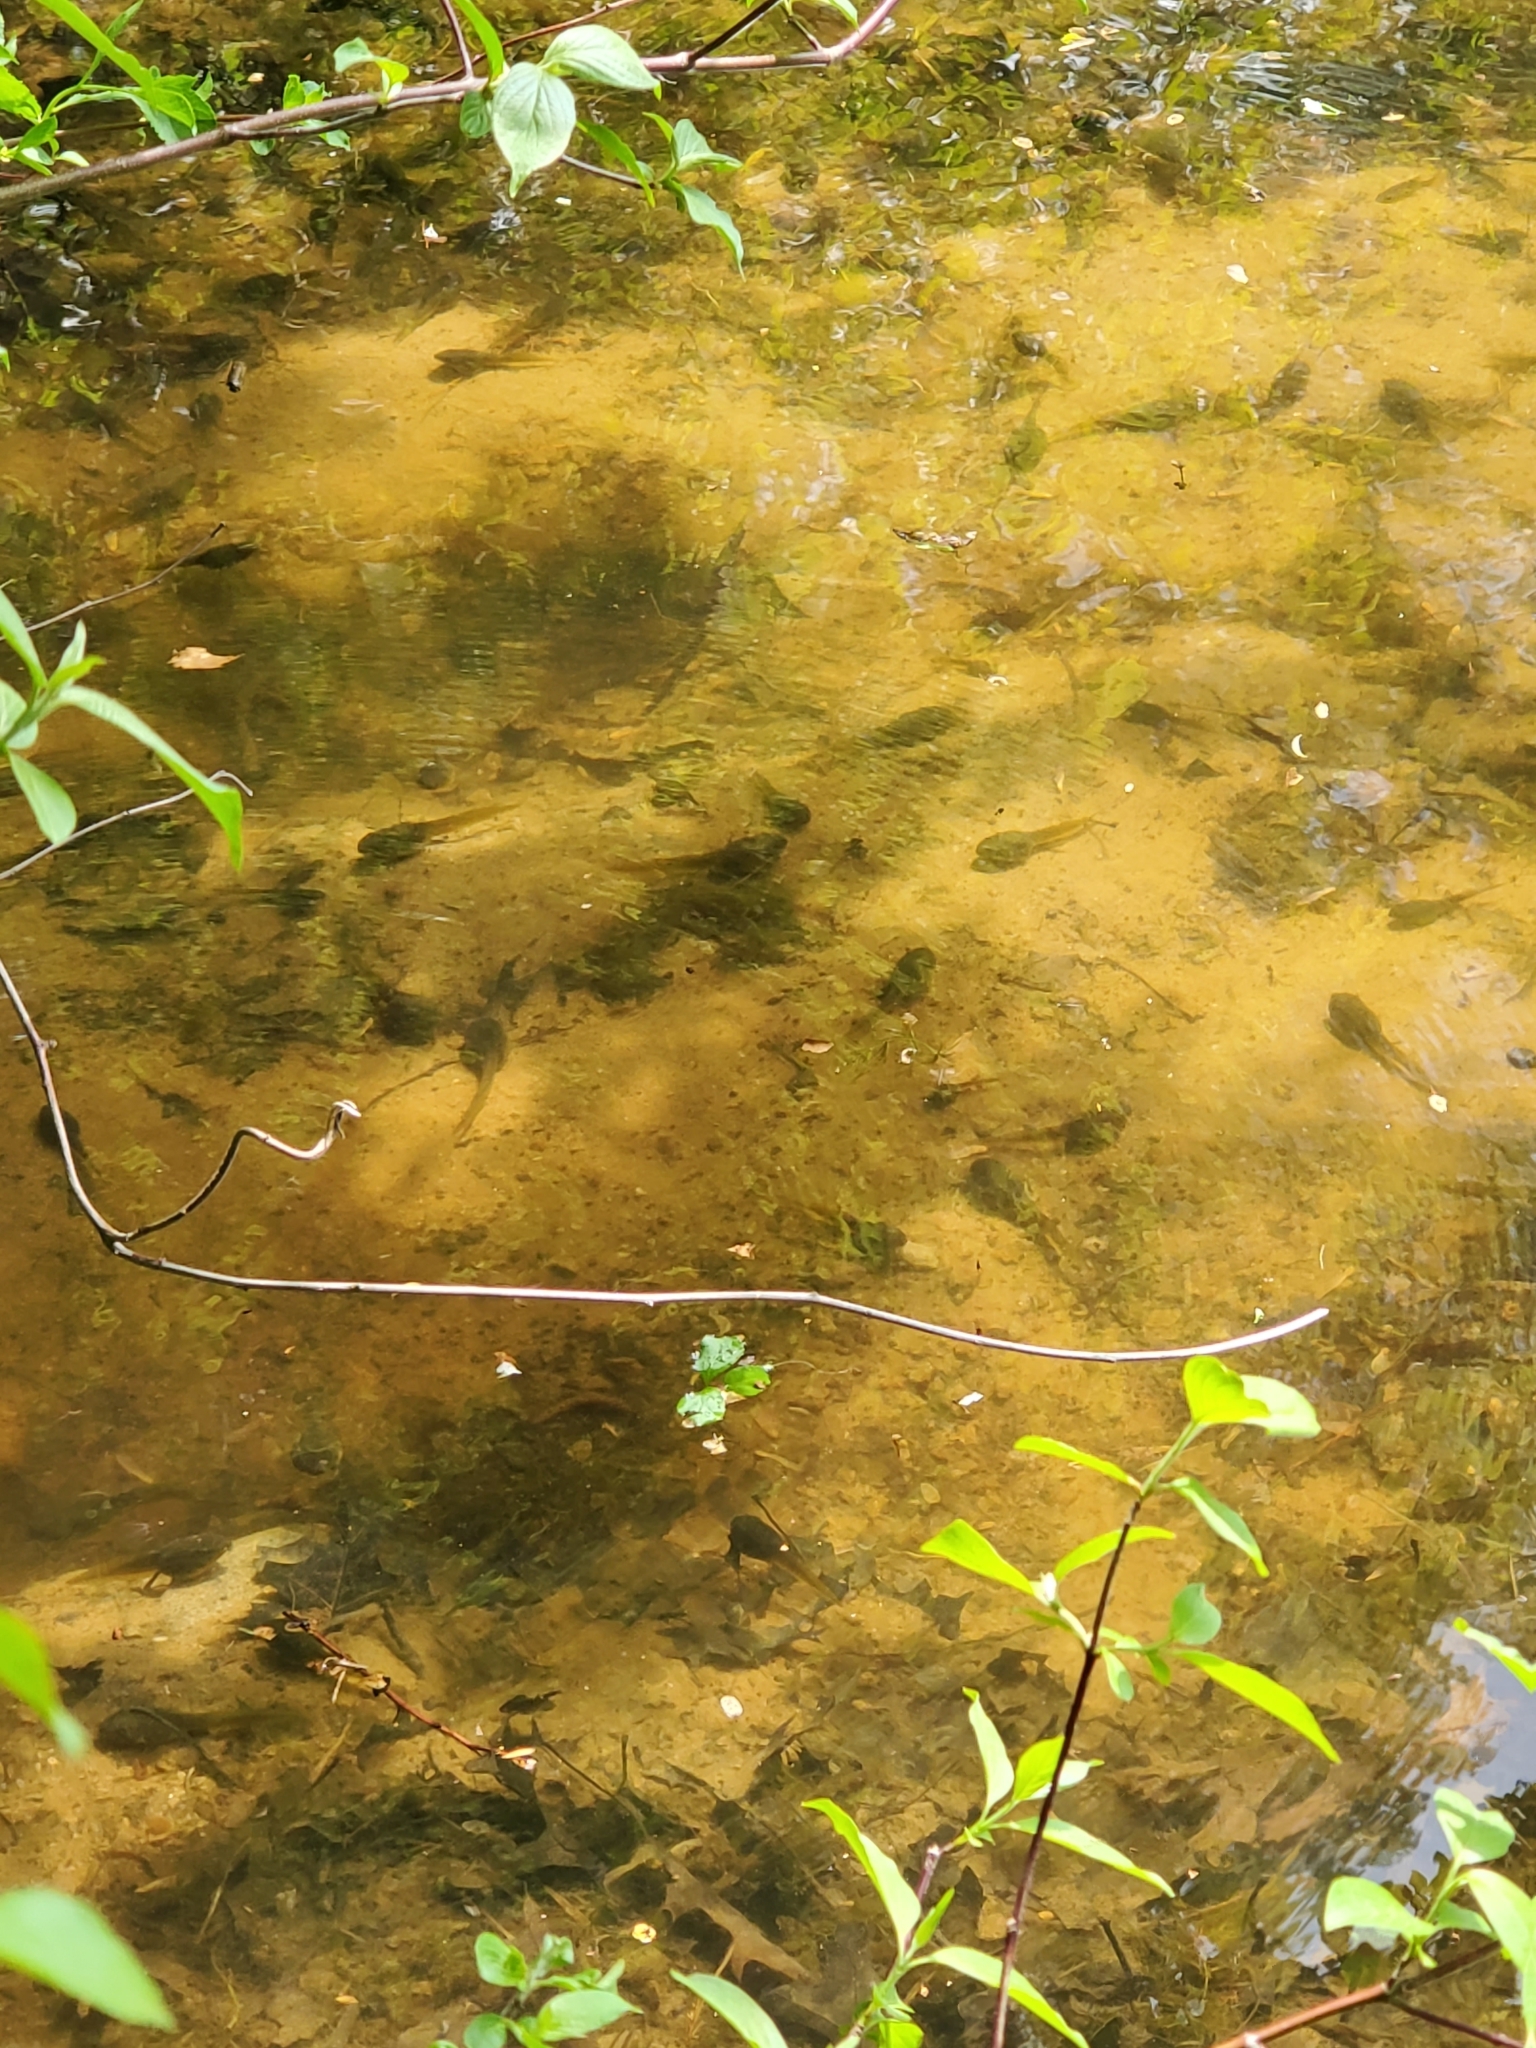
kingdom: Animalia
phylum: Chordata
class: Amphibia
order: Anura
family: Ranidae
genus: Lithobates
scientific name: Lithobates catesbeianus
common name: American bullfrog
